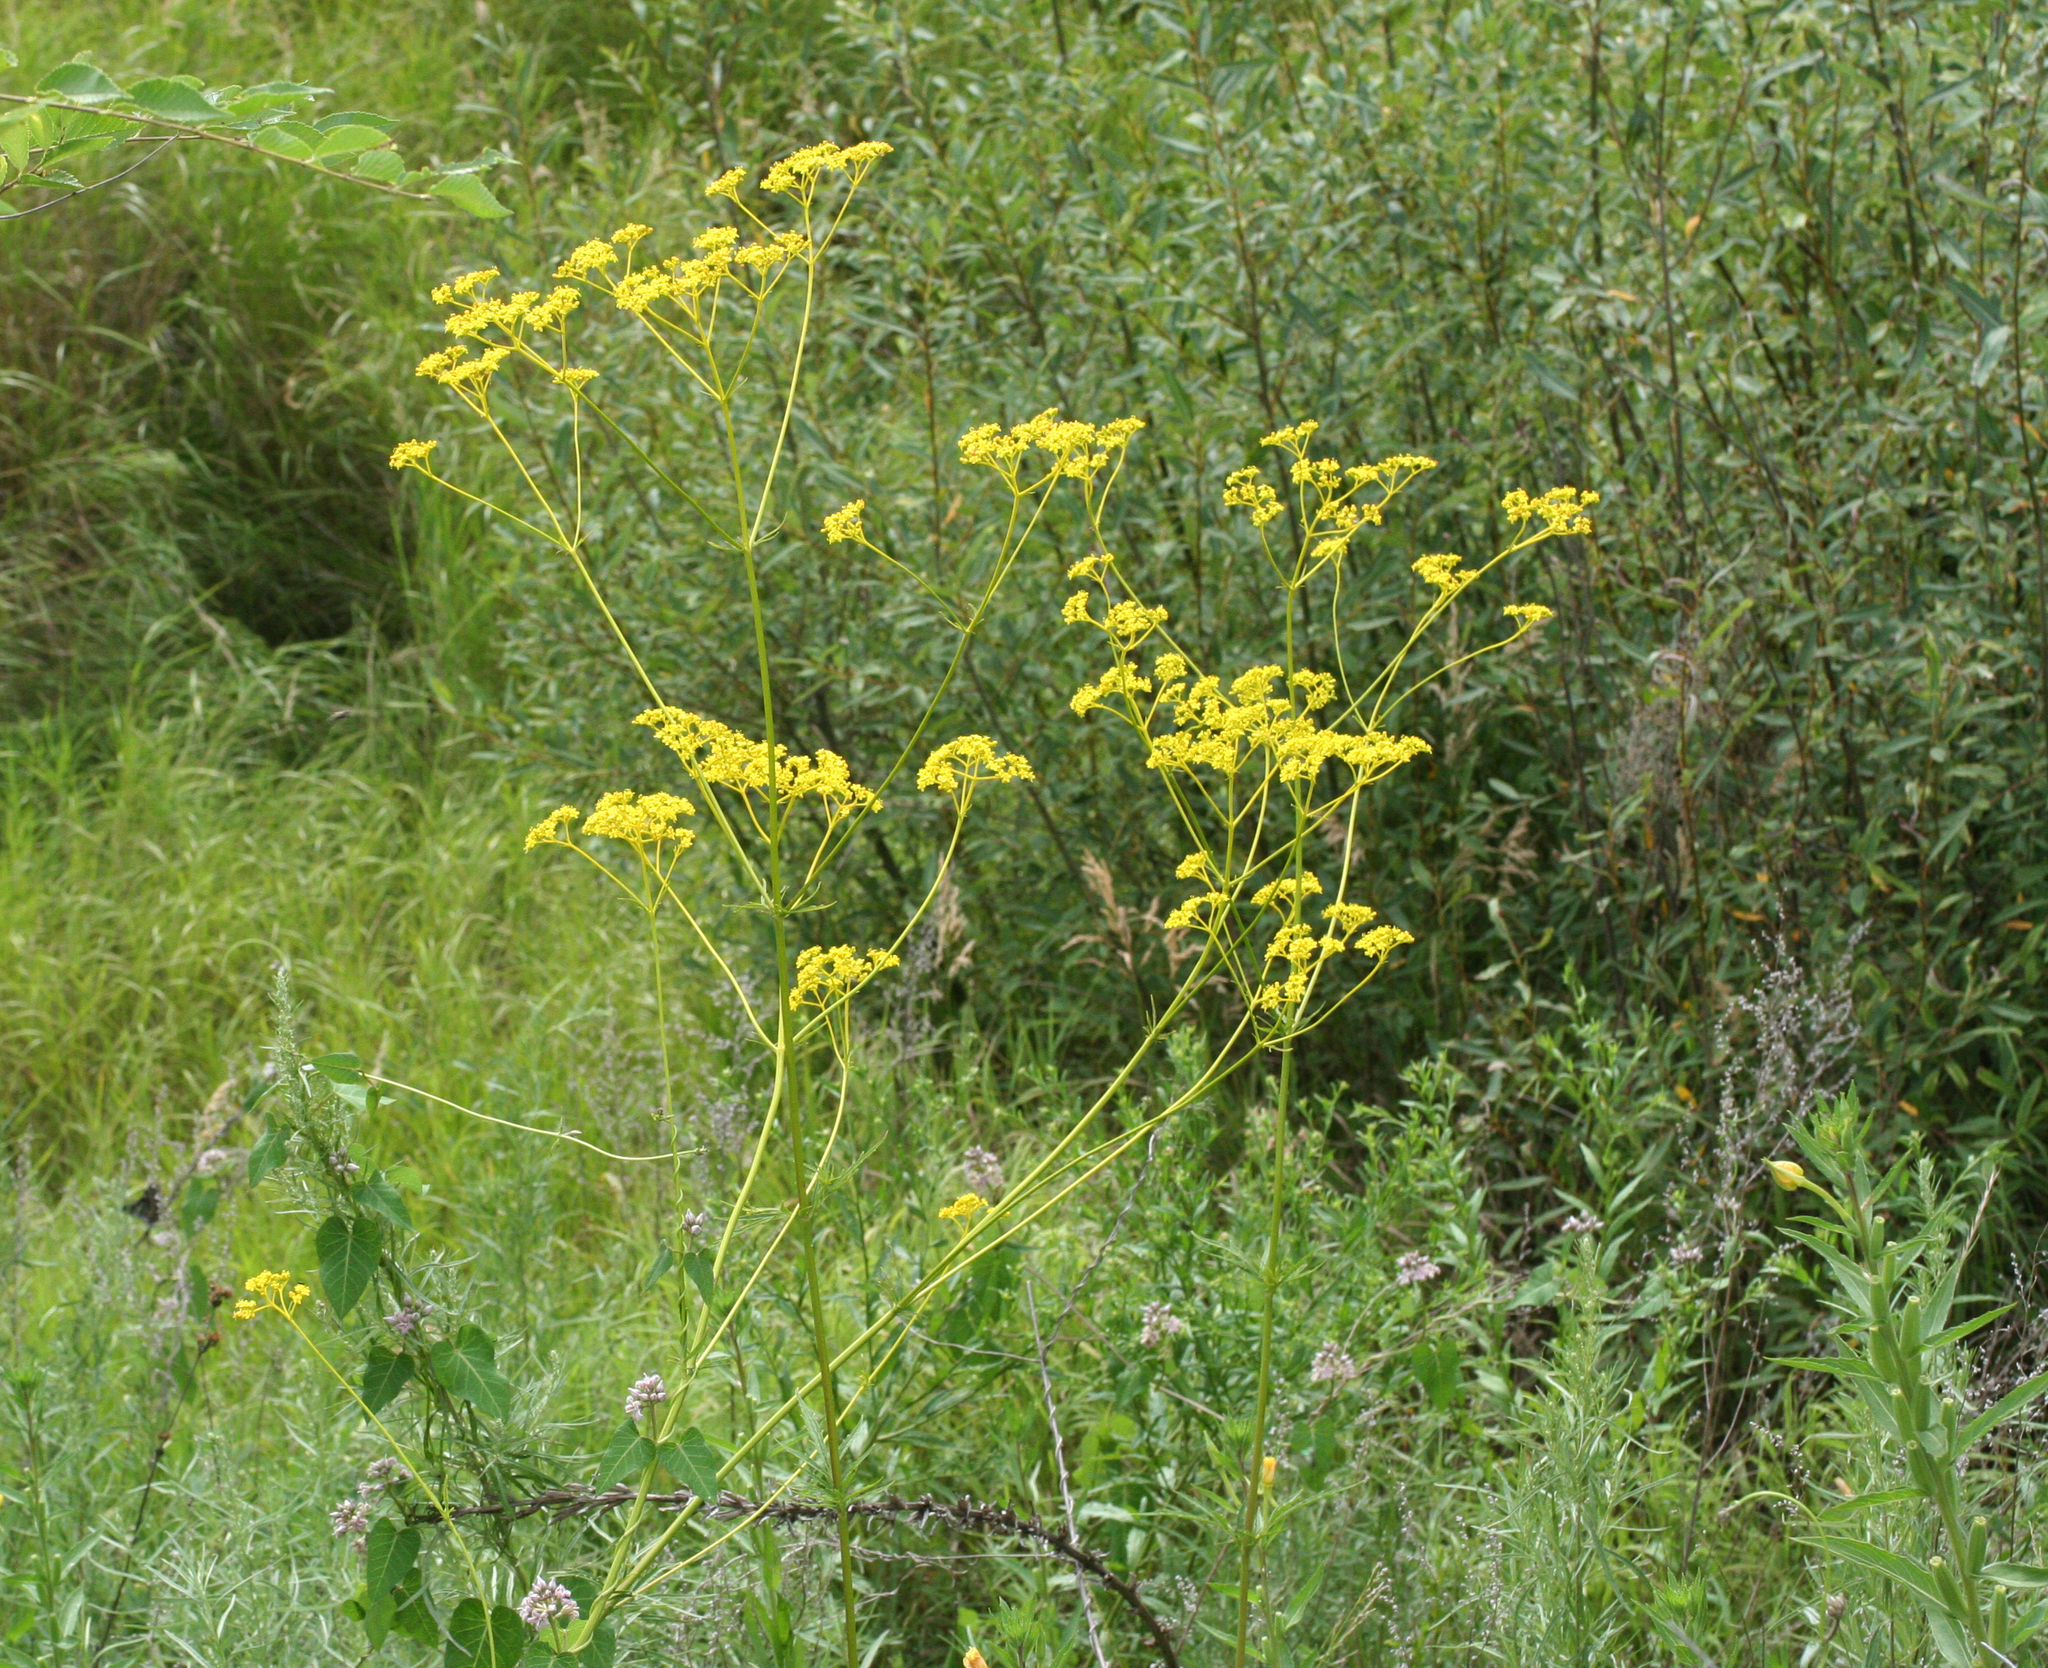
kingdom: Plantae
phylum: Tracheophyta
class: Magnoliopsida
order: Dipsacales
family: Caprifoliaceae
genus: Patrinia
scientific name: Patrinia scabiosifolia
